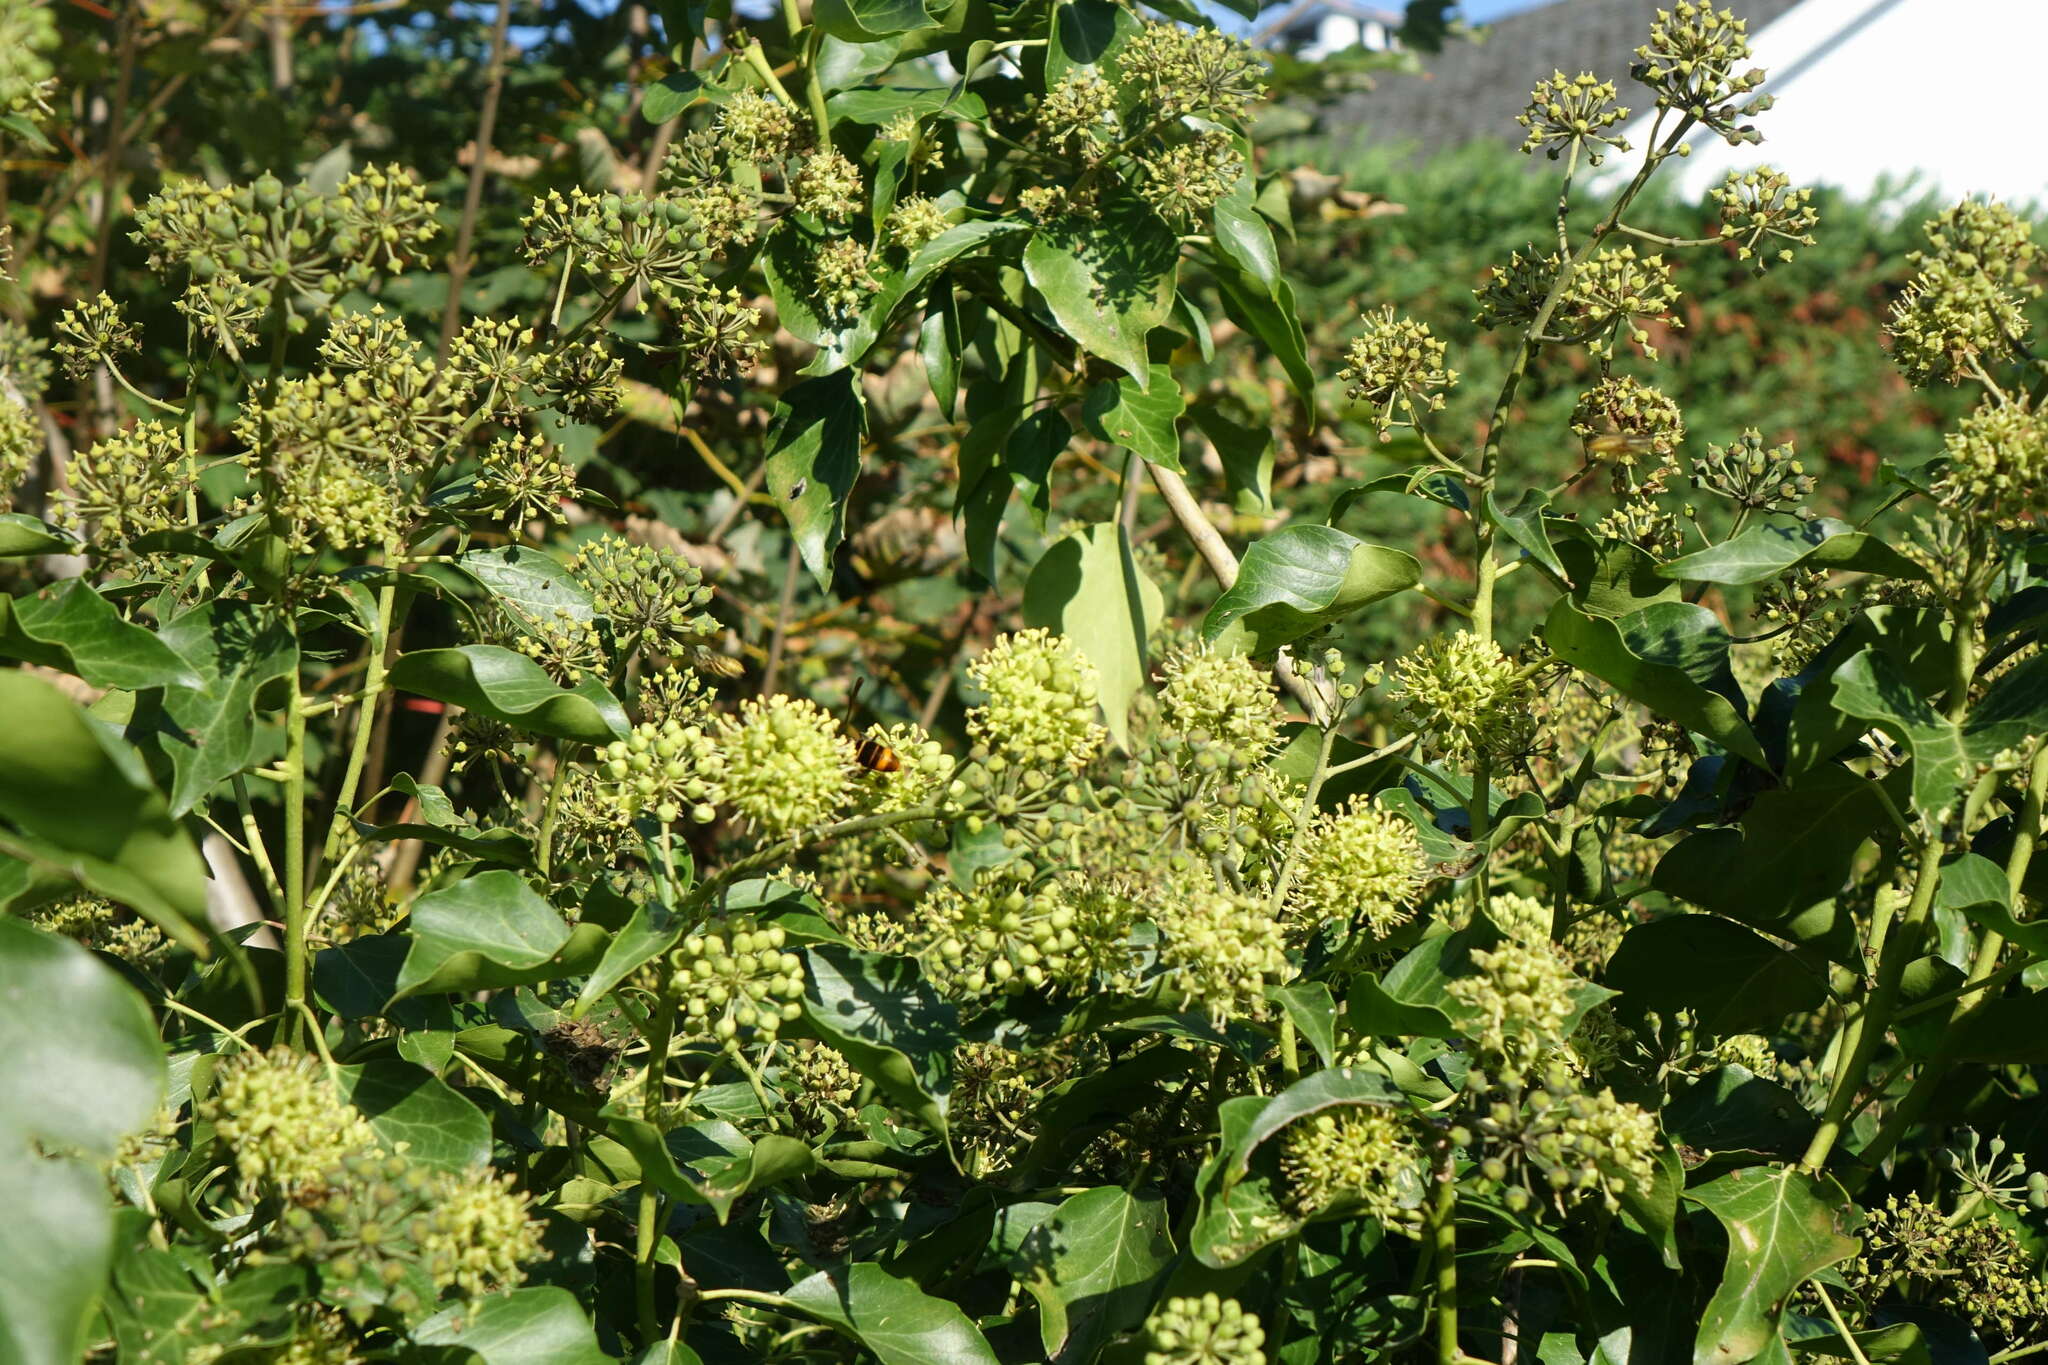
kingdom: Animalia
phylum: Arthropoda
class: Insecta
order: Hymenoptera
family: Vespidae
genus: Vespa
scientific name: Vespa velutina
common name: Asian hornet
